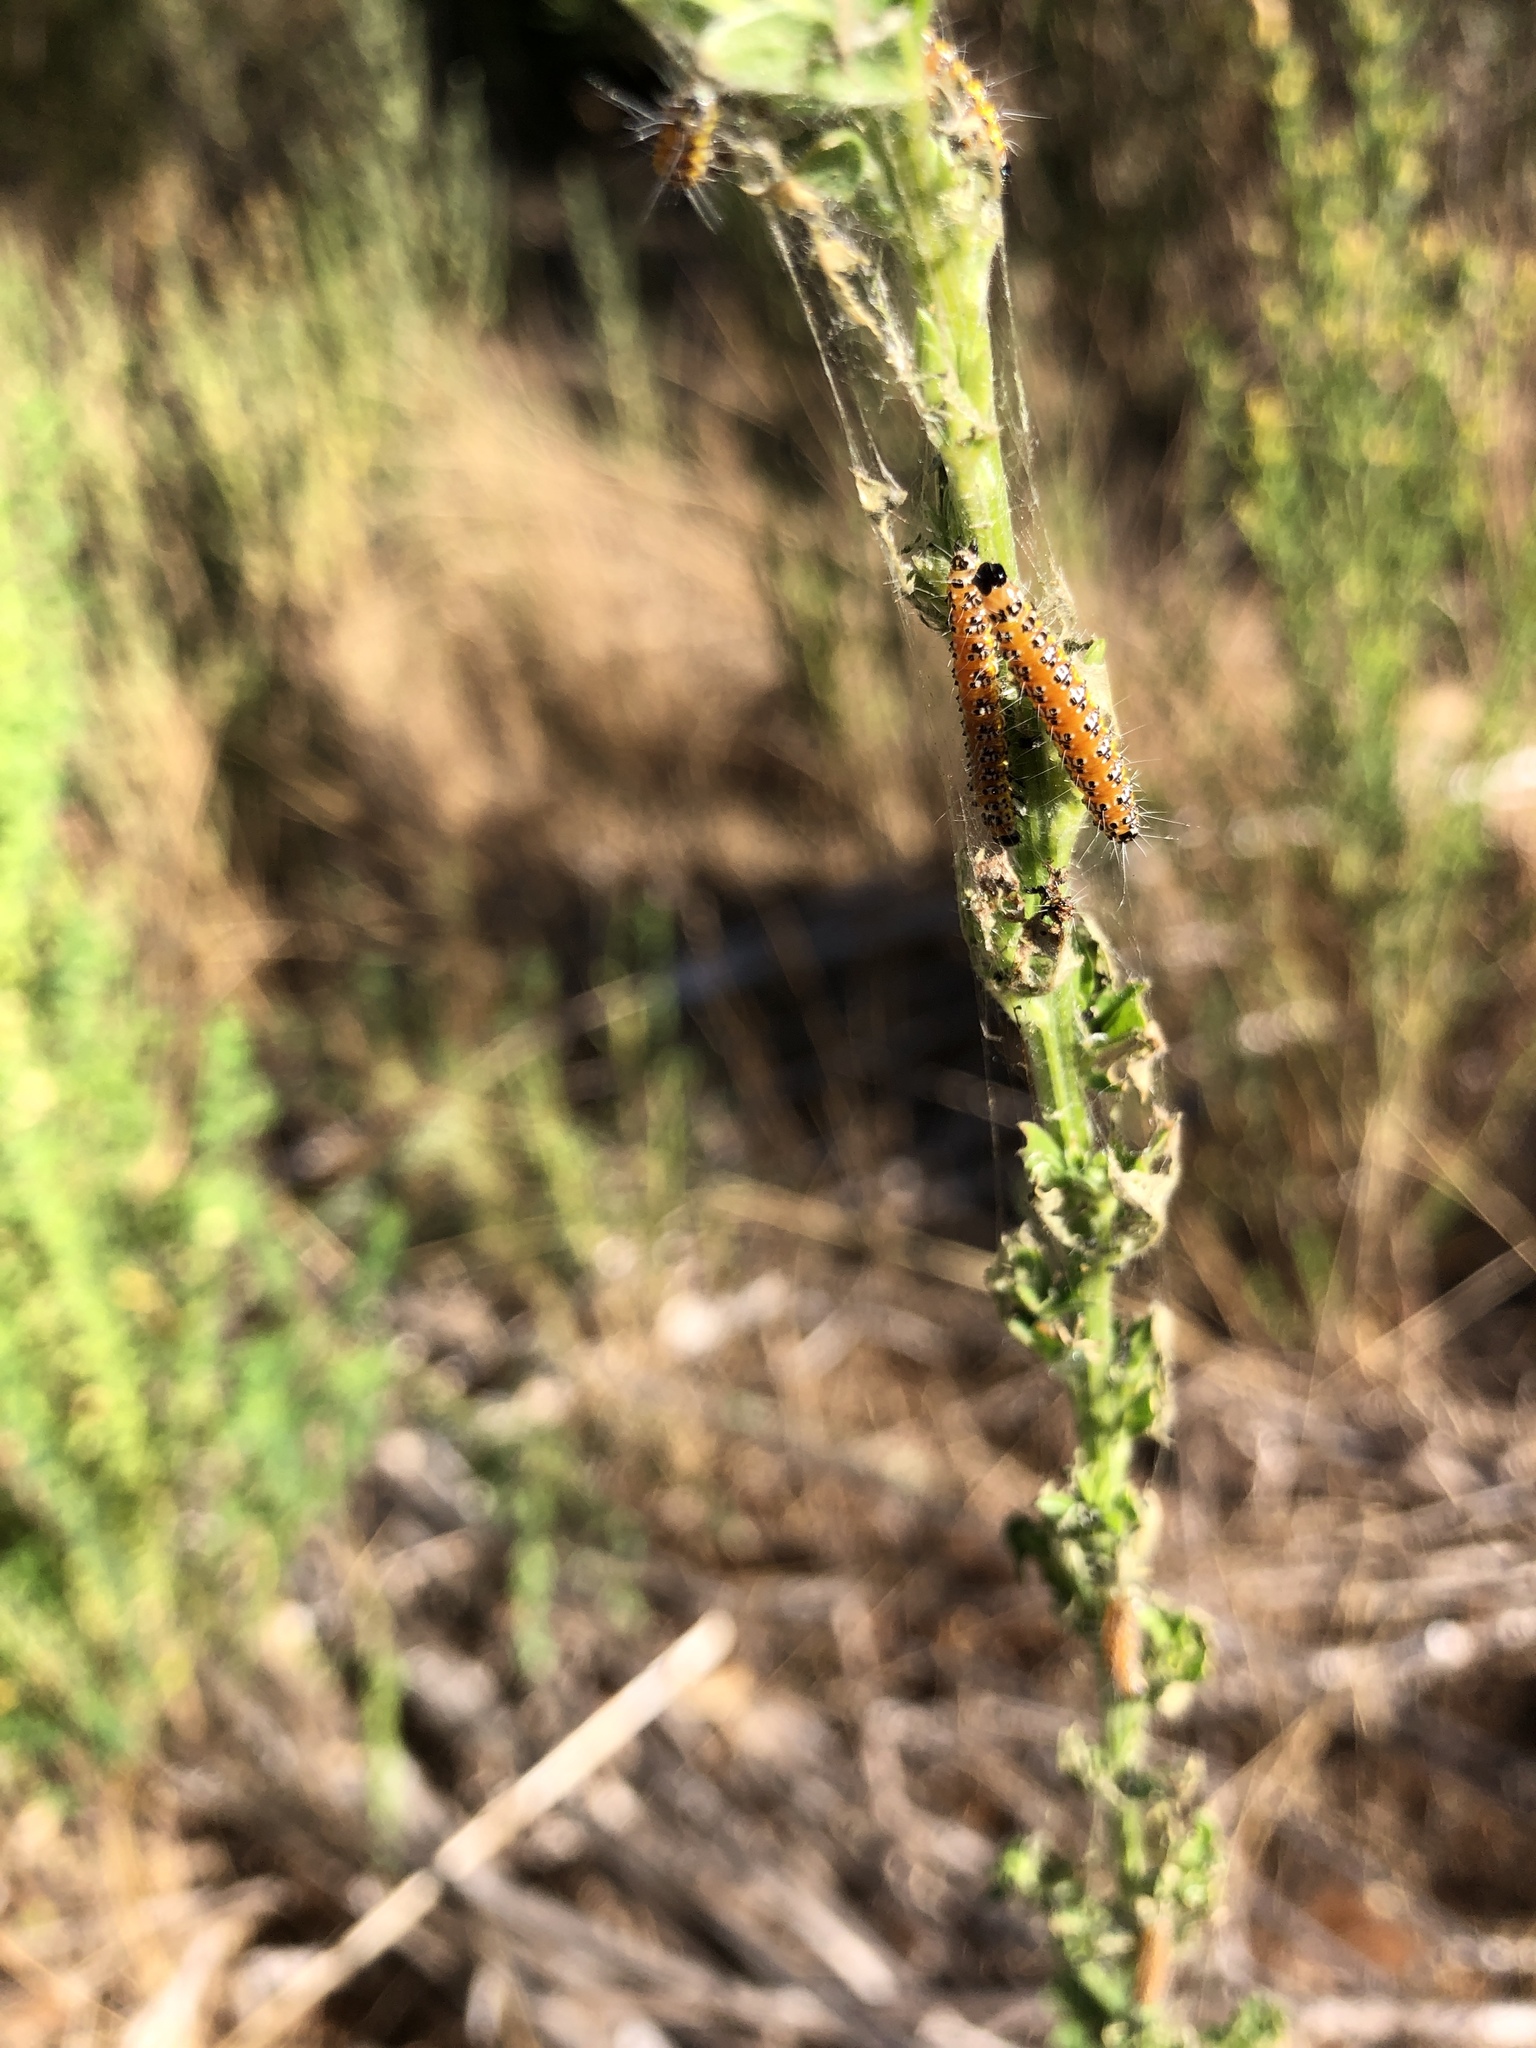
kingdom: Animalia
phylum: Arthropoda
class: Insecta
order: Lepidoptera
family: Crambidae
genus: Uresiphita
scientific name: Uresiphita reversalis
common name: Genista broom moth
